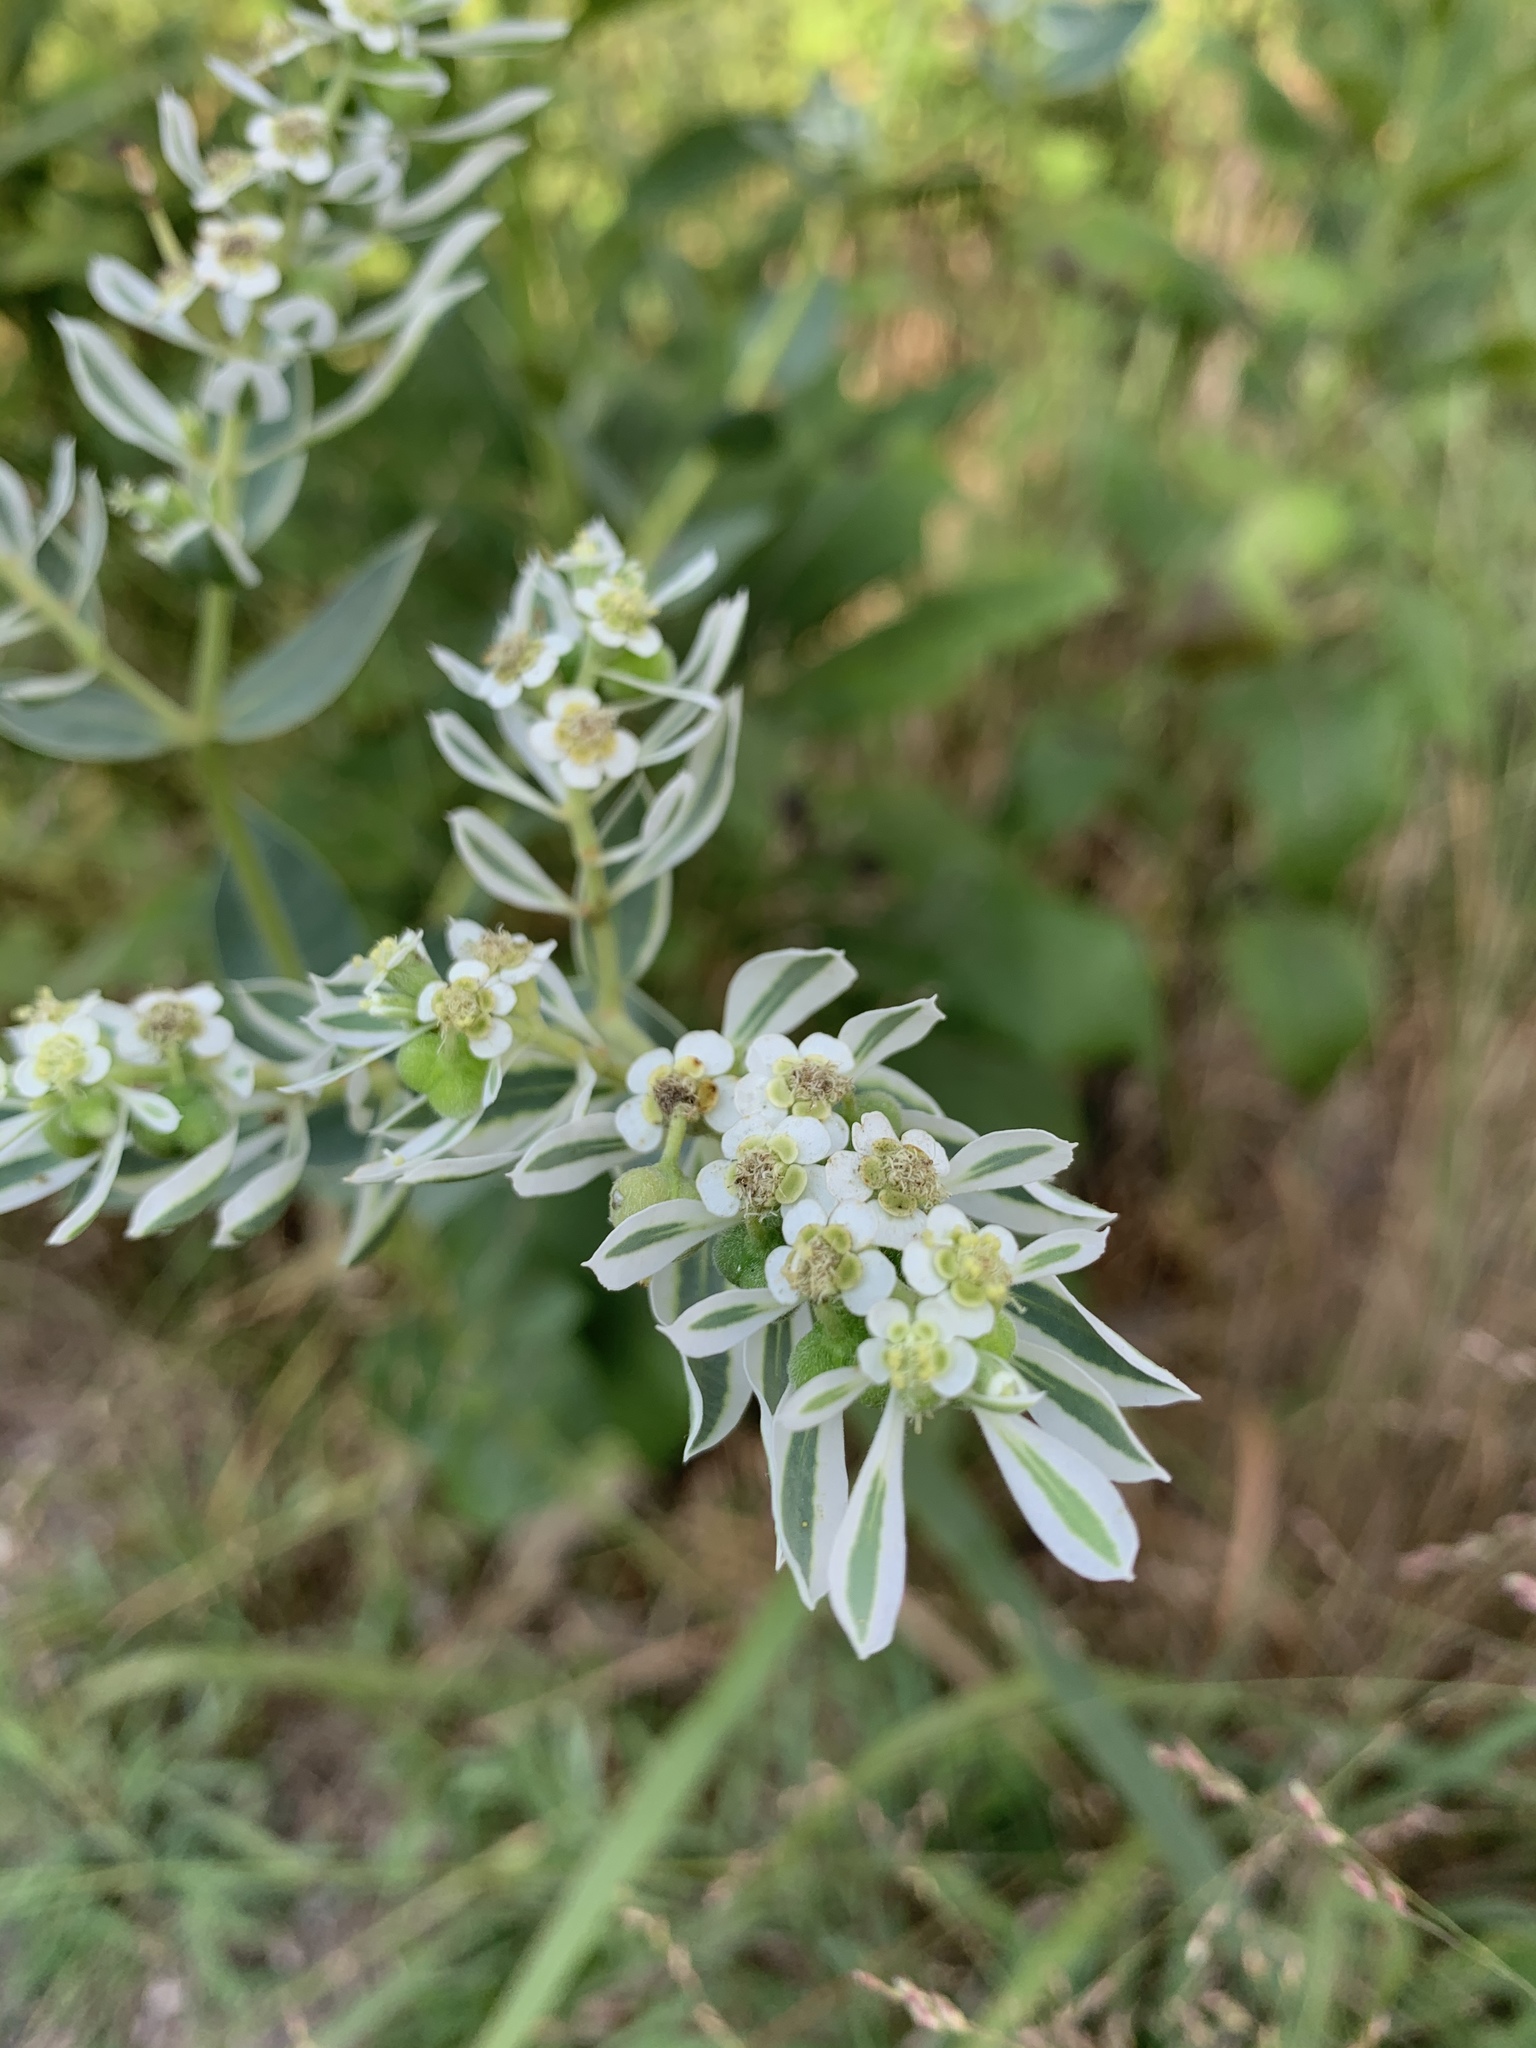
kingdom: Plantae
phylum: Tracheophyta
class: Magnoliopsida
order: Malpighiales
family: Euphorbiaceae
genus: Euphorbia
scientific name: Euphorbia marginata
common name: Ghostweed
